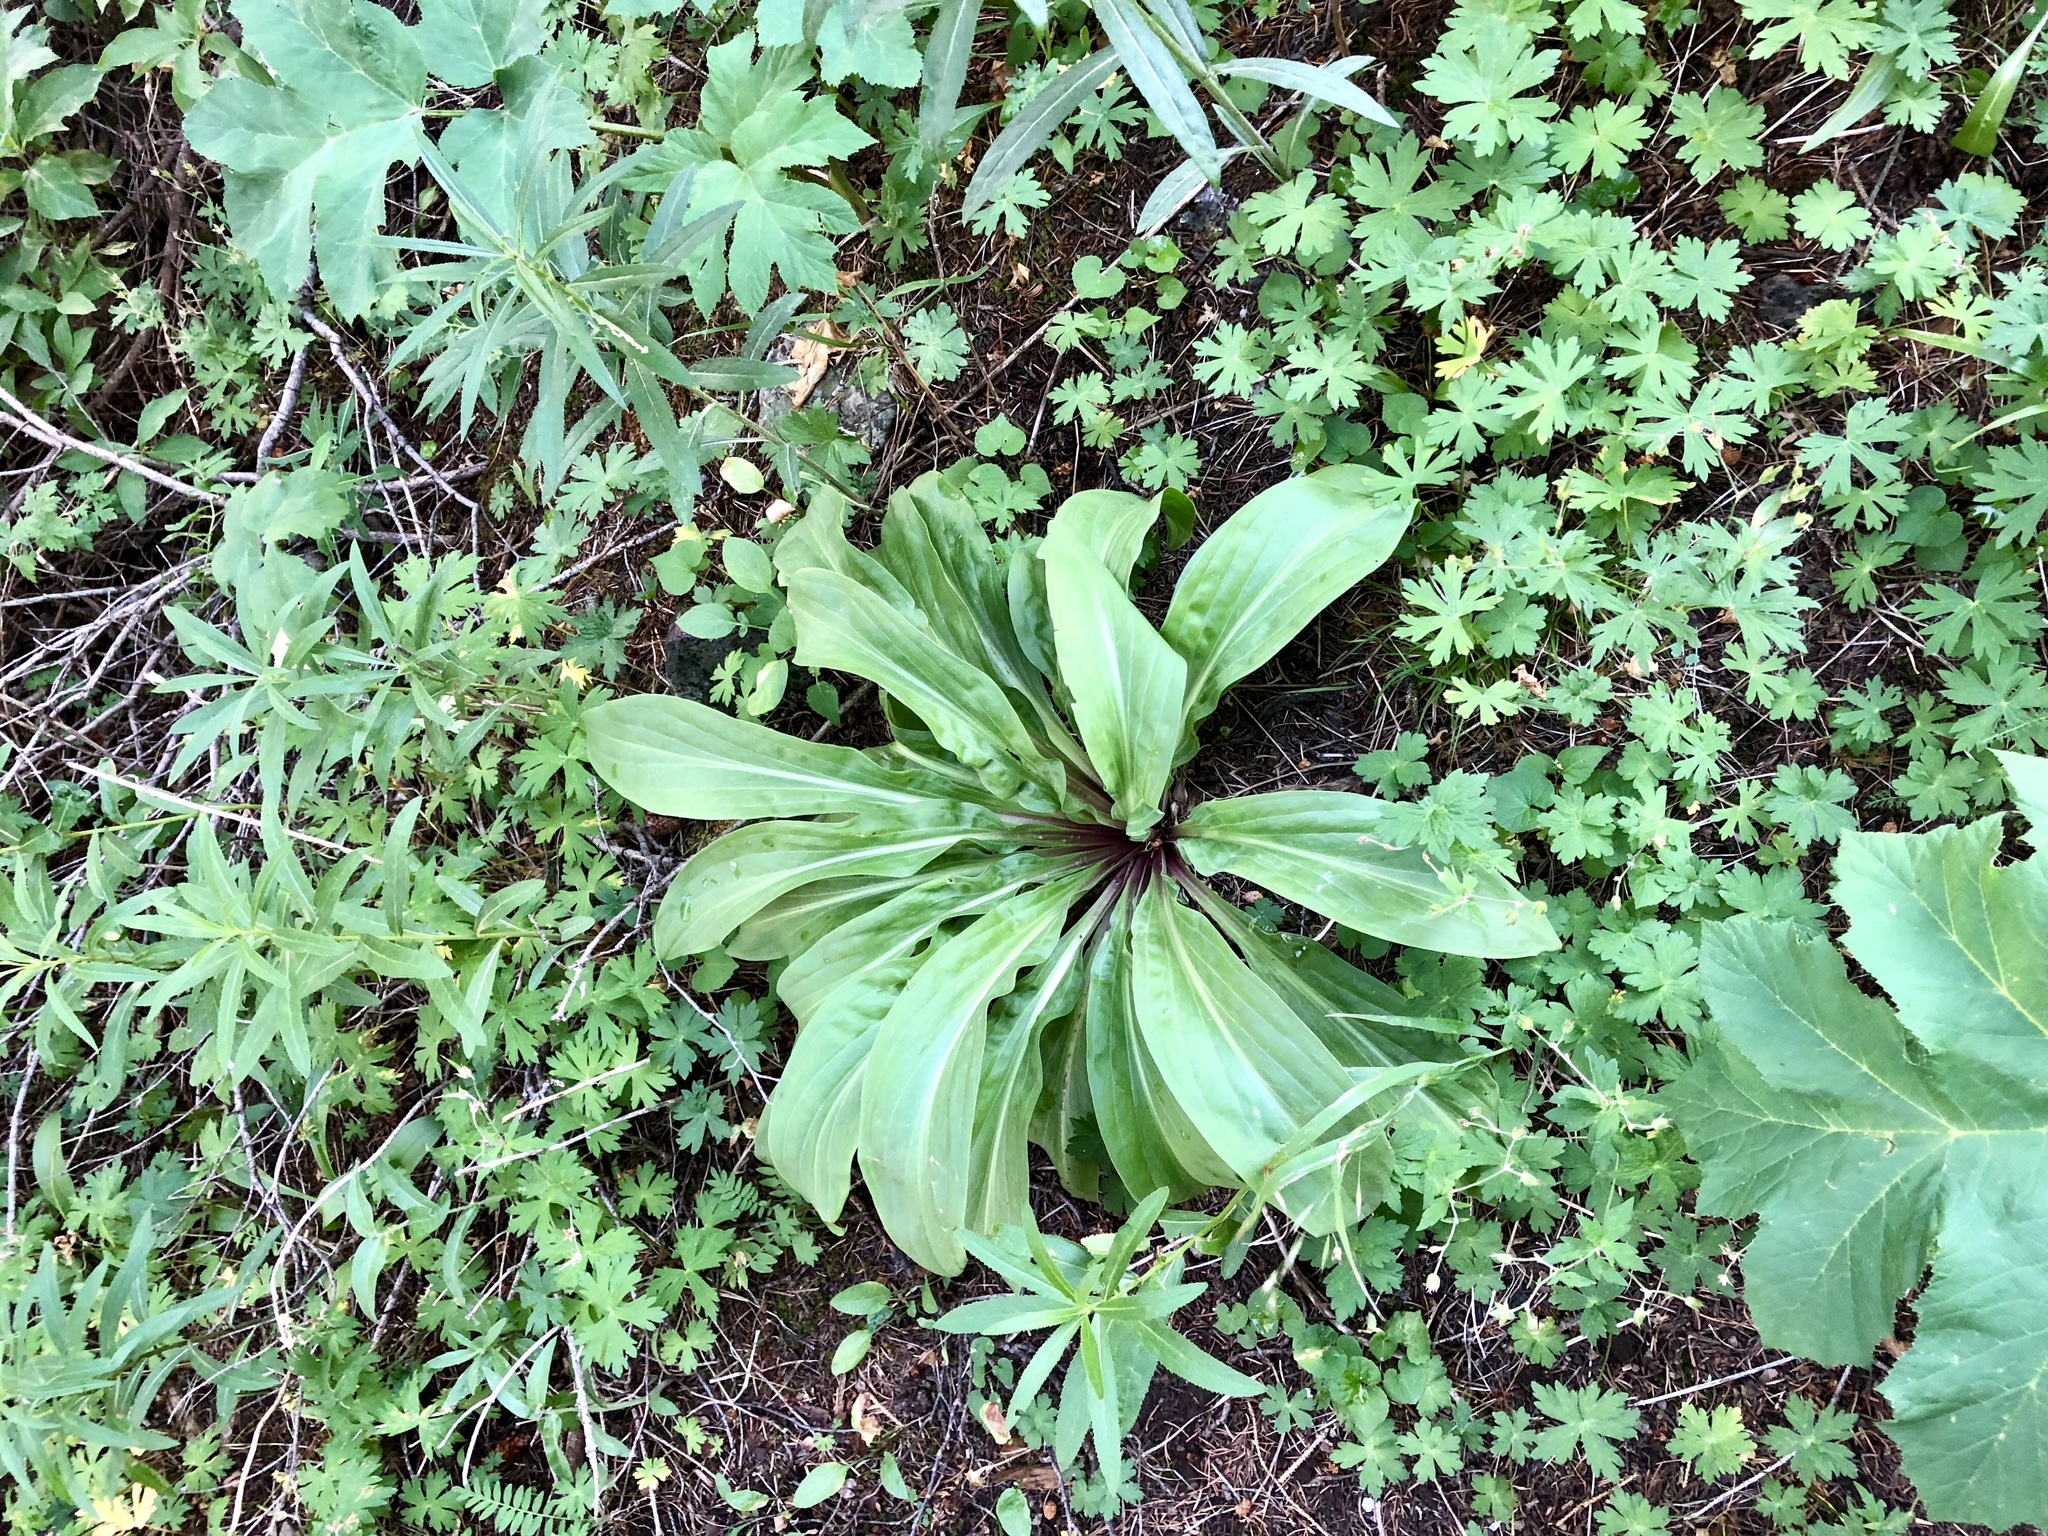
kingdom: Plantae
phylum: Tracheophyta
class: Magnoliopsida
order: Gentianales
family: Gentianaceae
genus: Frasera
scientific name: Frasera speciosa
